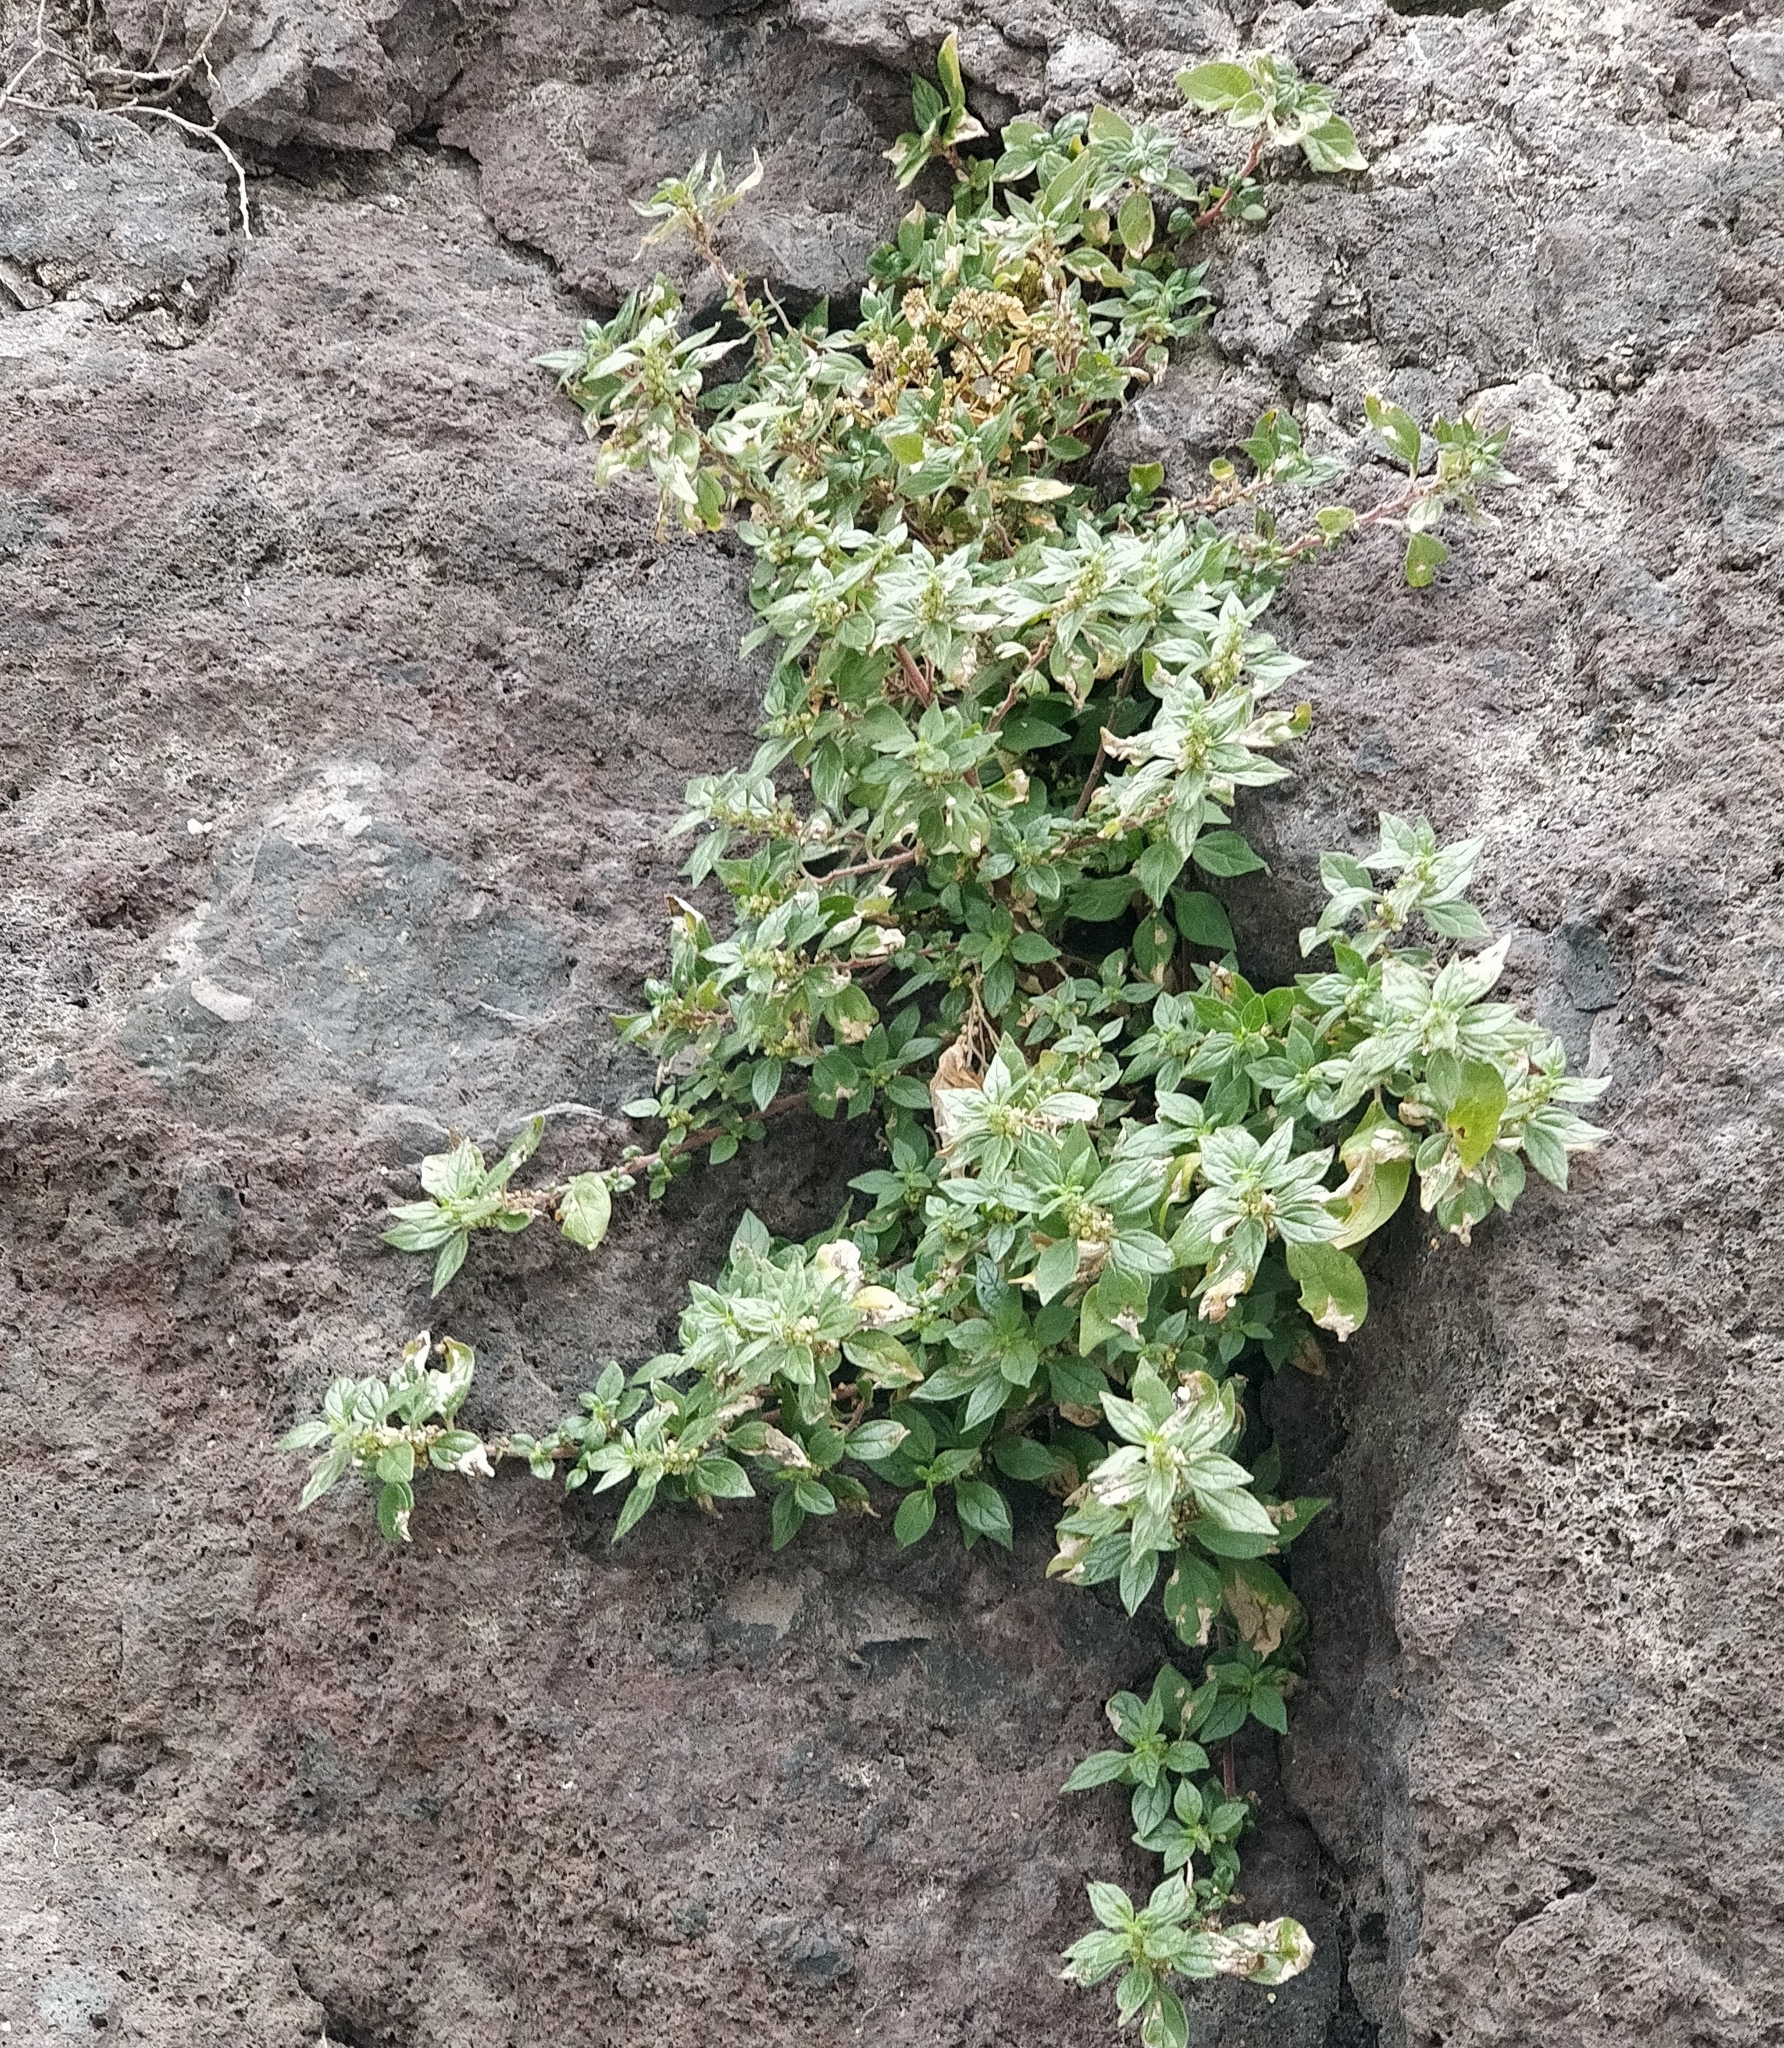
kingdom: Plantae
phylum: Tracheophyta
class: Magnoliopsida
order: Rosales
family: Urticaceae
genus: Parietaria
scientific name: Parietaria judaica
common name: Pellitory-of-the-wall
